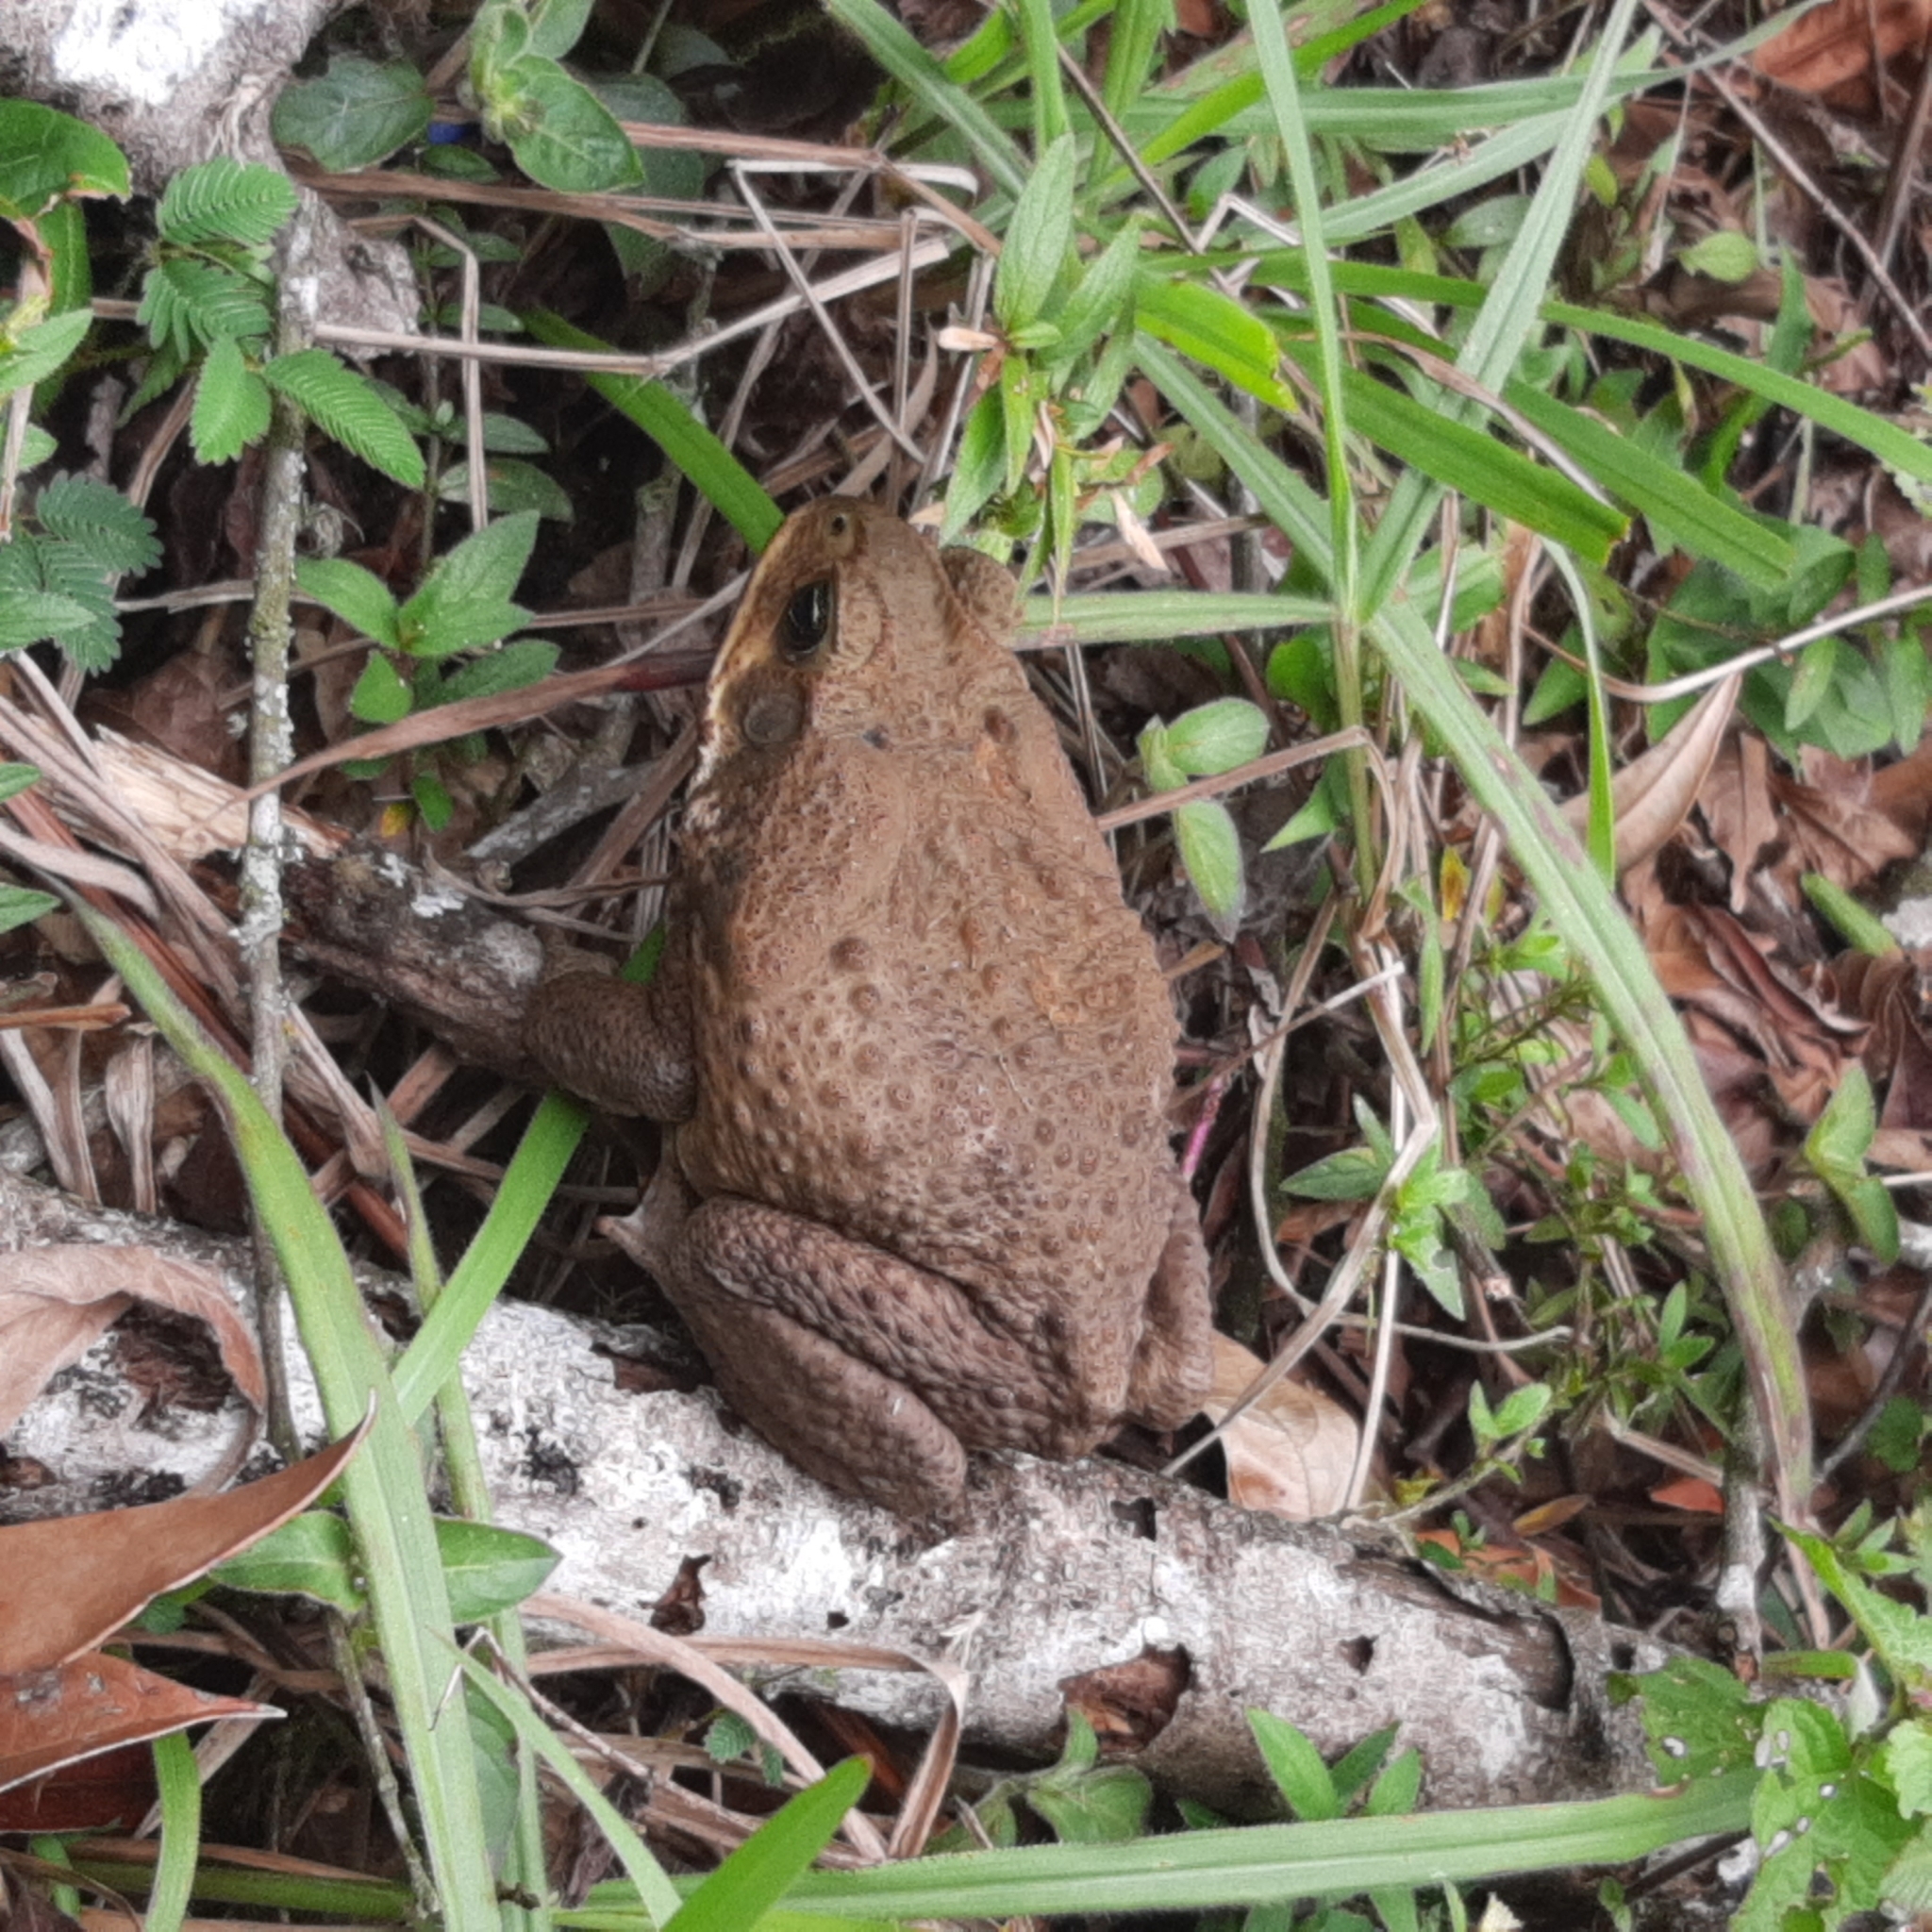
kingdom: Animalia
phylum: Chordata
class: Amphibia
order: Anura
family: Bufonidae
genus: Rhinella
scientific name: Rhinella horribilis
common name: Mesoamerican cane toad
